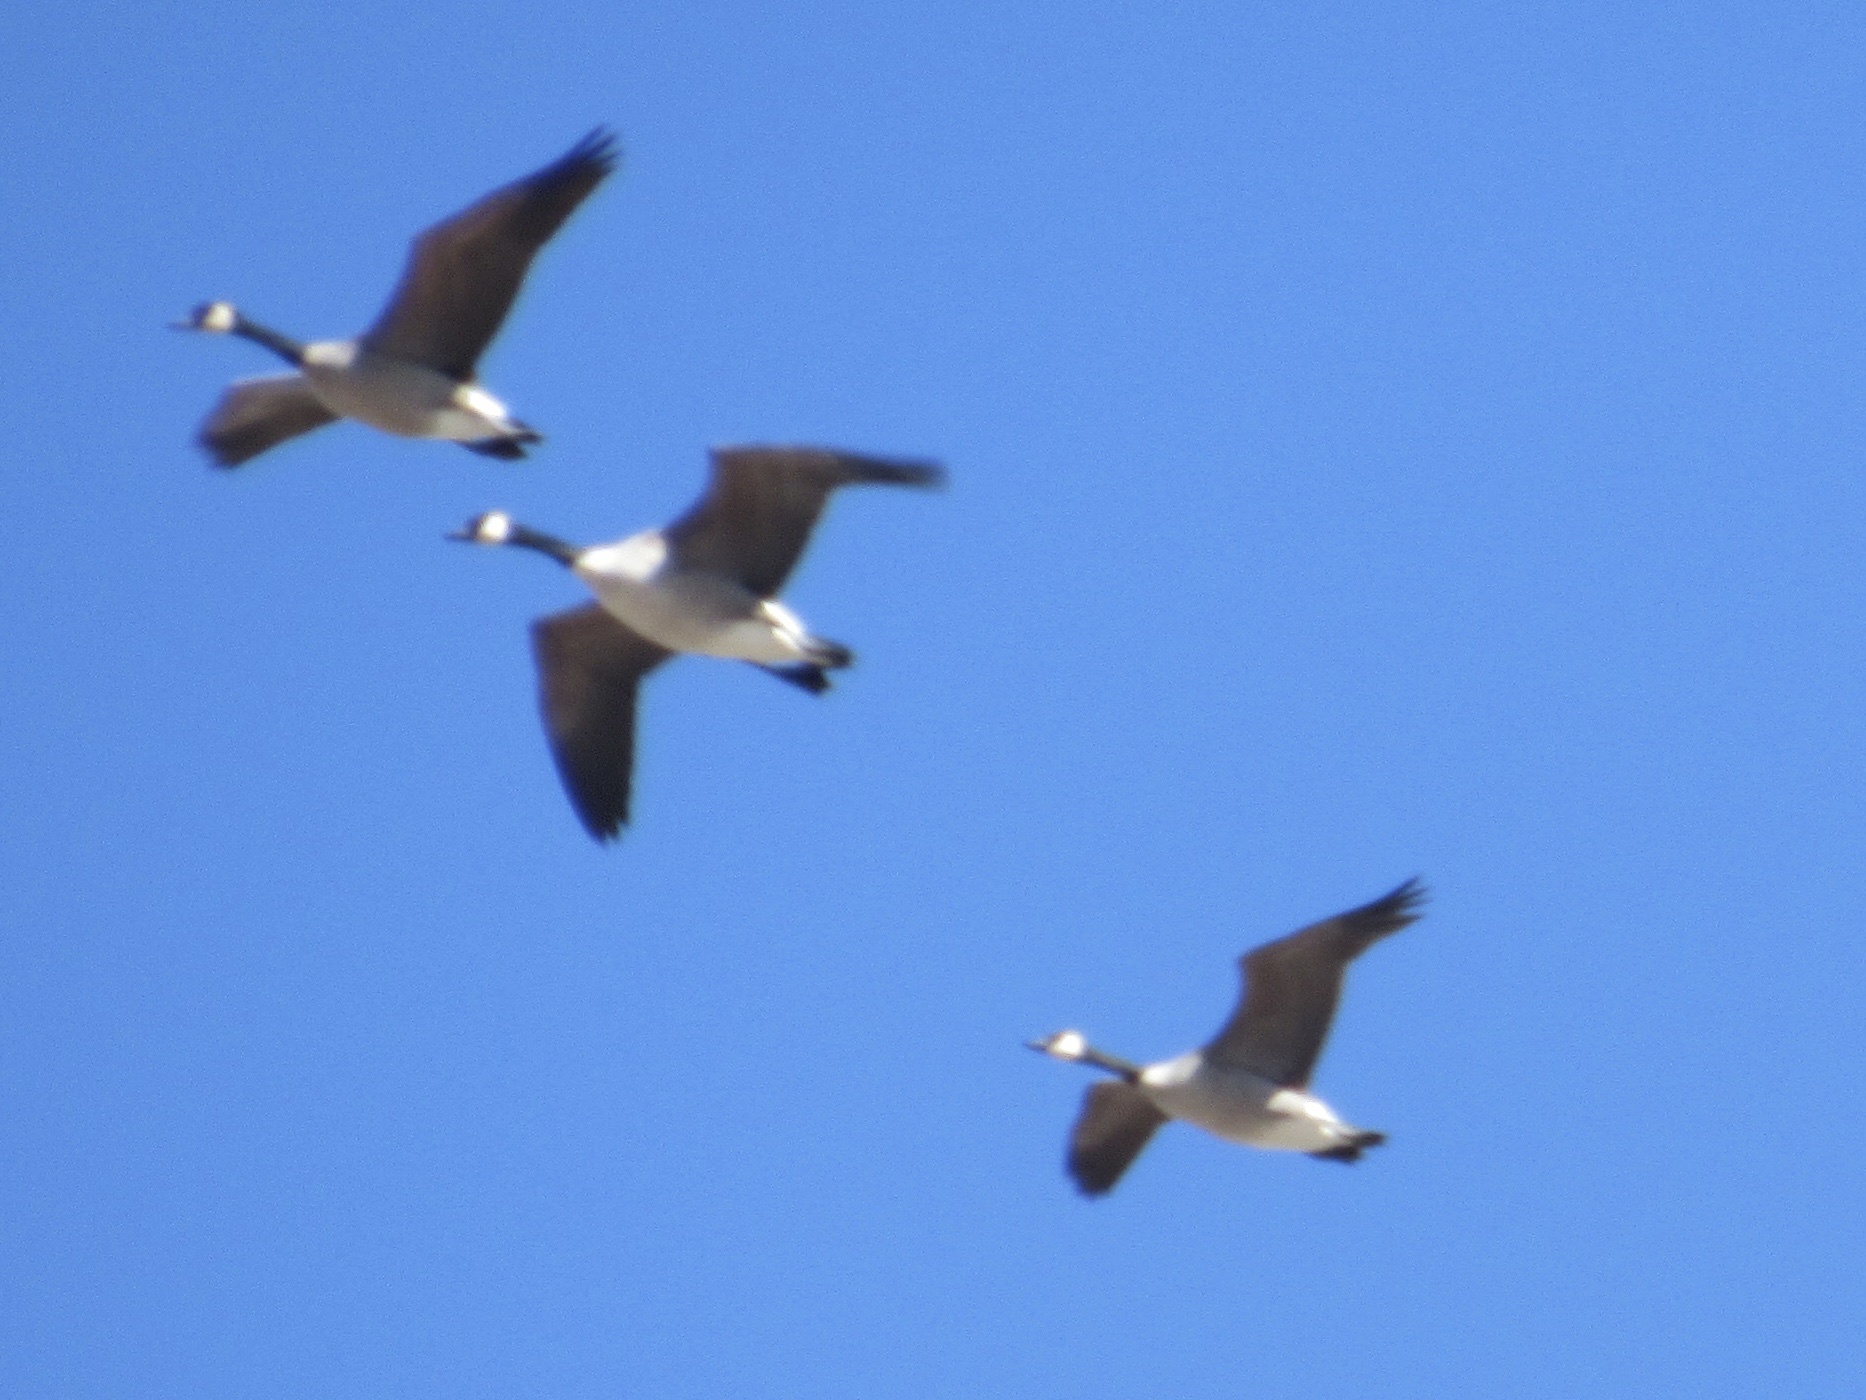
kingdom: Animalia
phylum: Chordata
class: Aves
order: Anseriformes
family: Anatidae
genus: Branta
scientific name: Branta canadensis
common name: Canada goose
